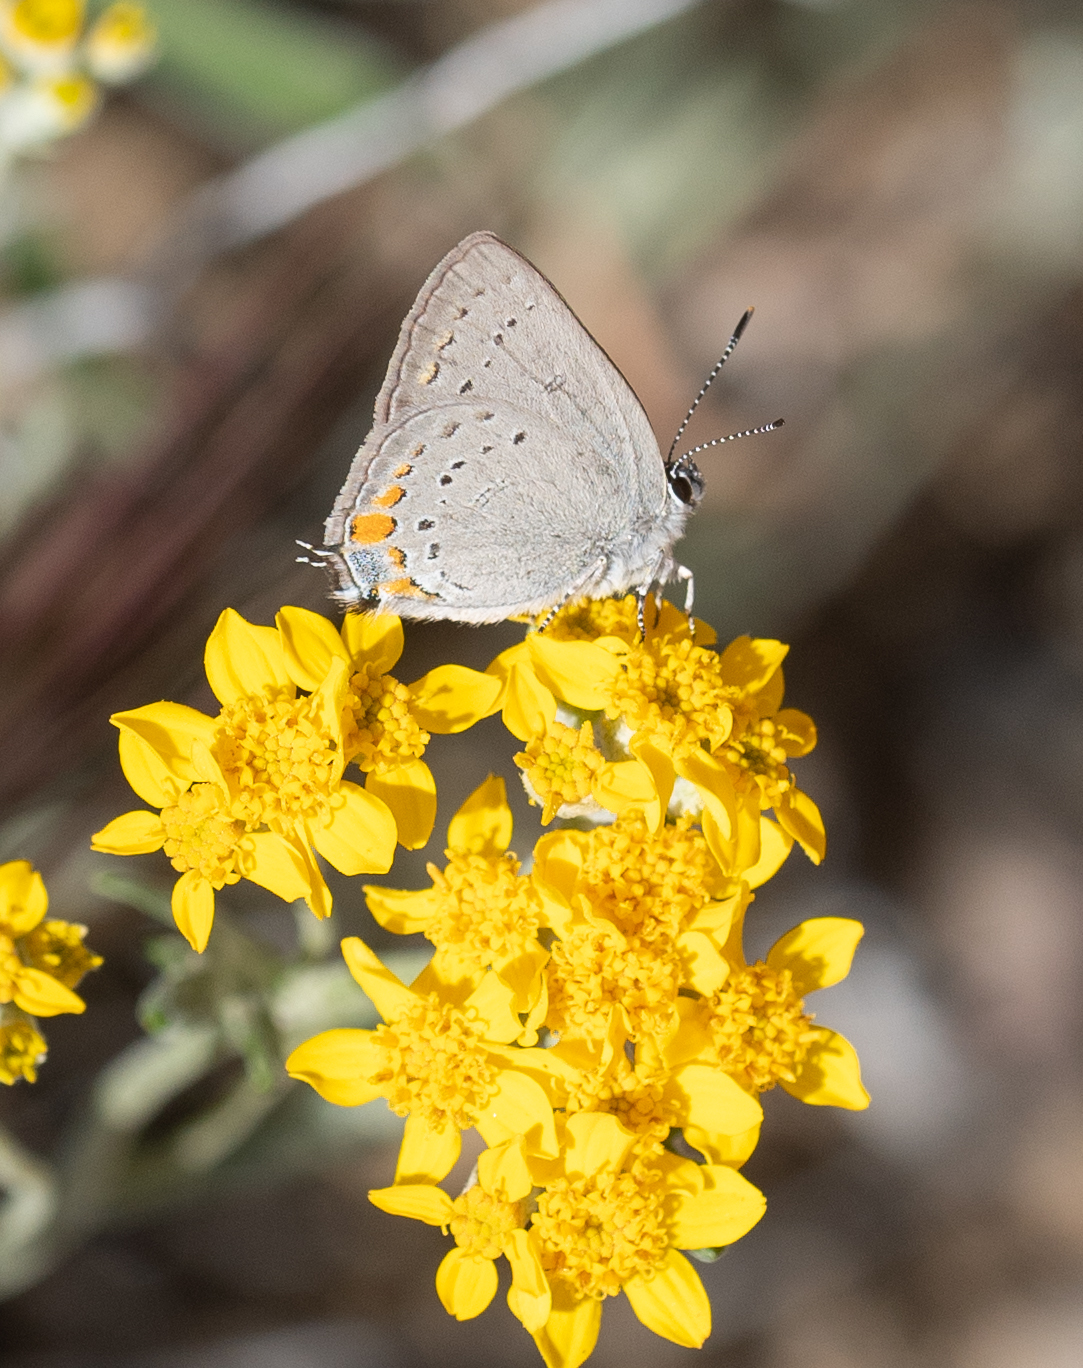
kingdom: Animalia
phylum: Arthropoda
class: Insecta
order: Lepidoptera
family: Lycaenidae
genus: Strymon
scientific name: Strymon acadica
